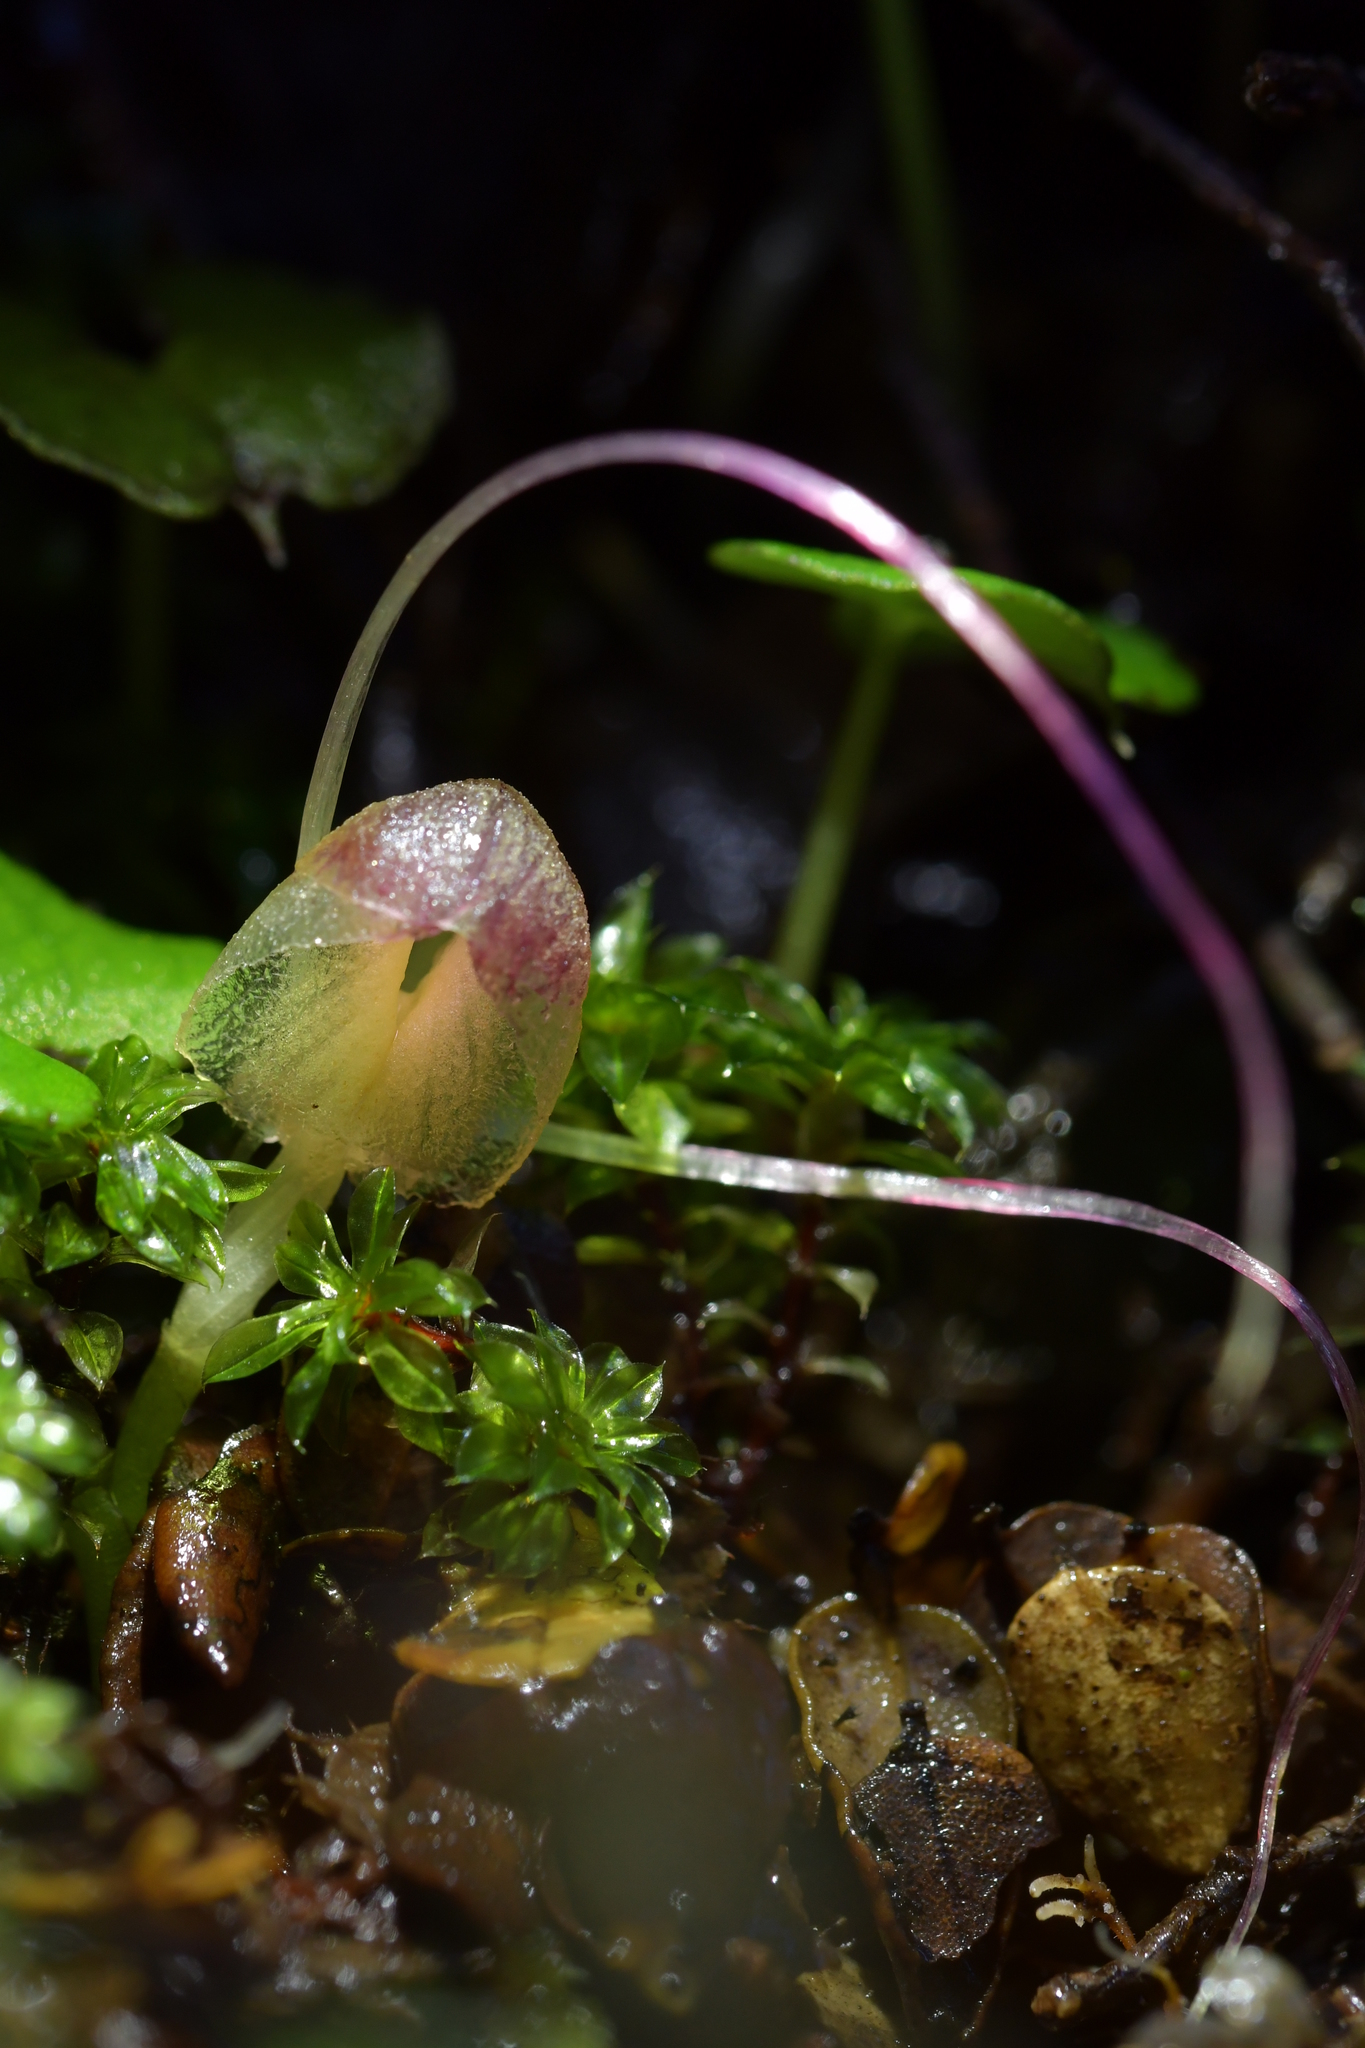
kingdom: Plantae
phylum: Tracheophyta
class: Liliopsida
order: Asparagales
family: Orchidaceae
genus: Corybas
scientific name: Corybas walliae
